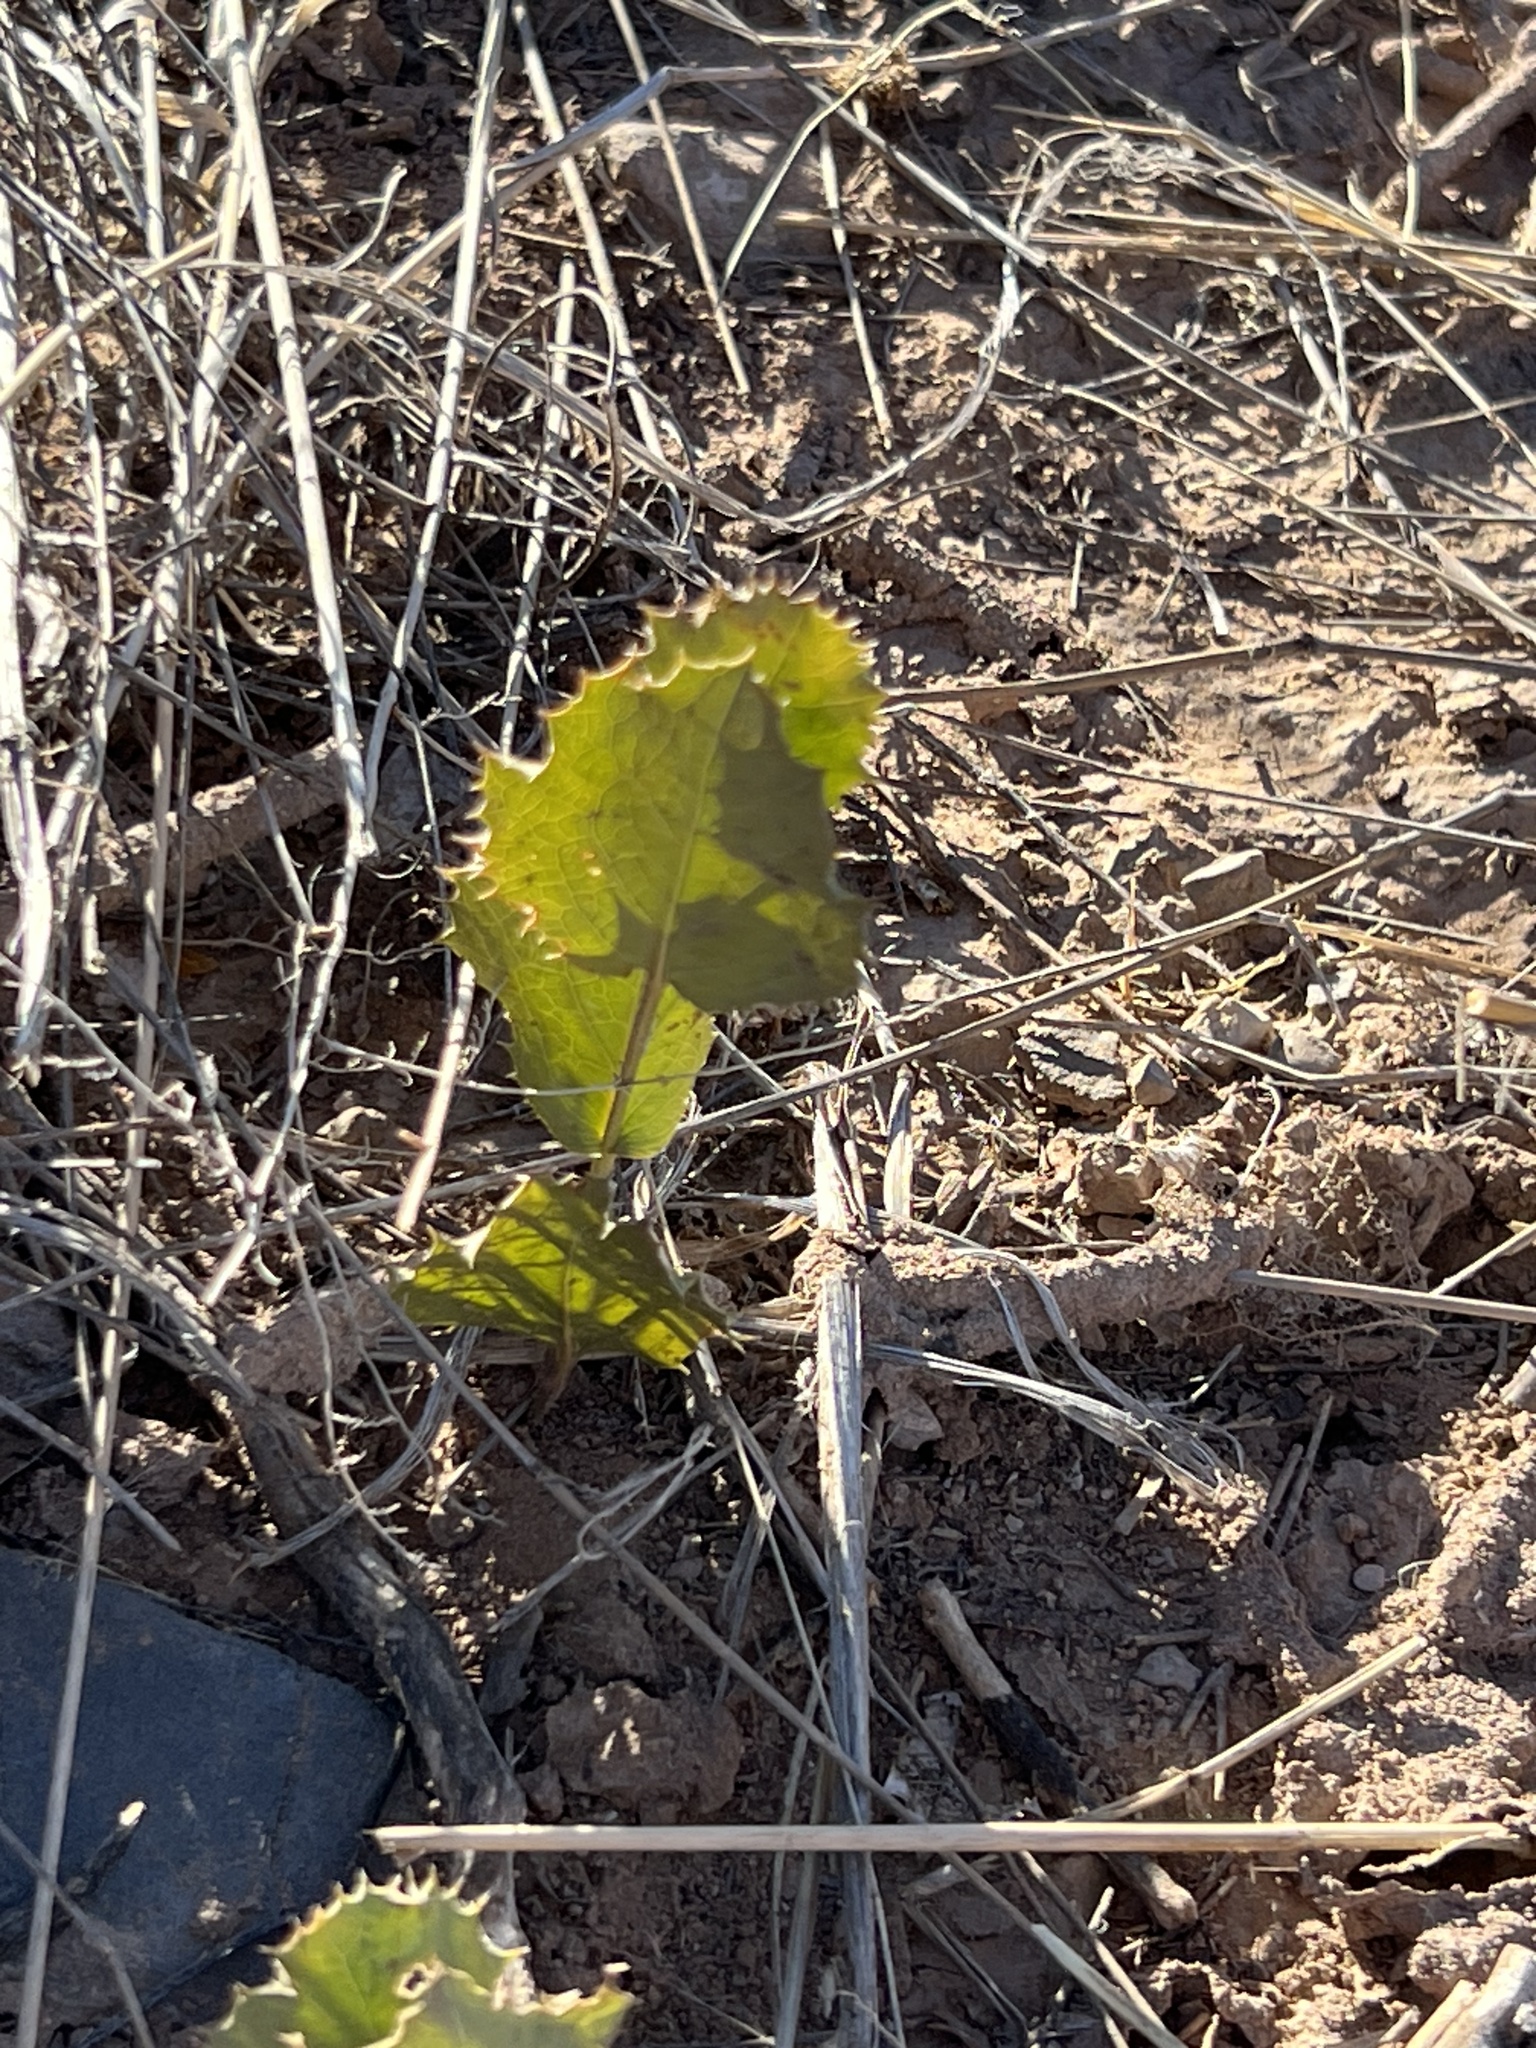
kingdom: Plantae
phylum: Tracheophyta
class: Magnoliopsida
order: Asterales
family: Asteraceae
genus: Acourtia
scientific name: Acourtia nana
